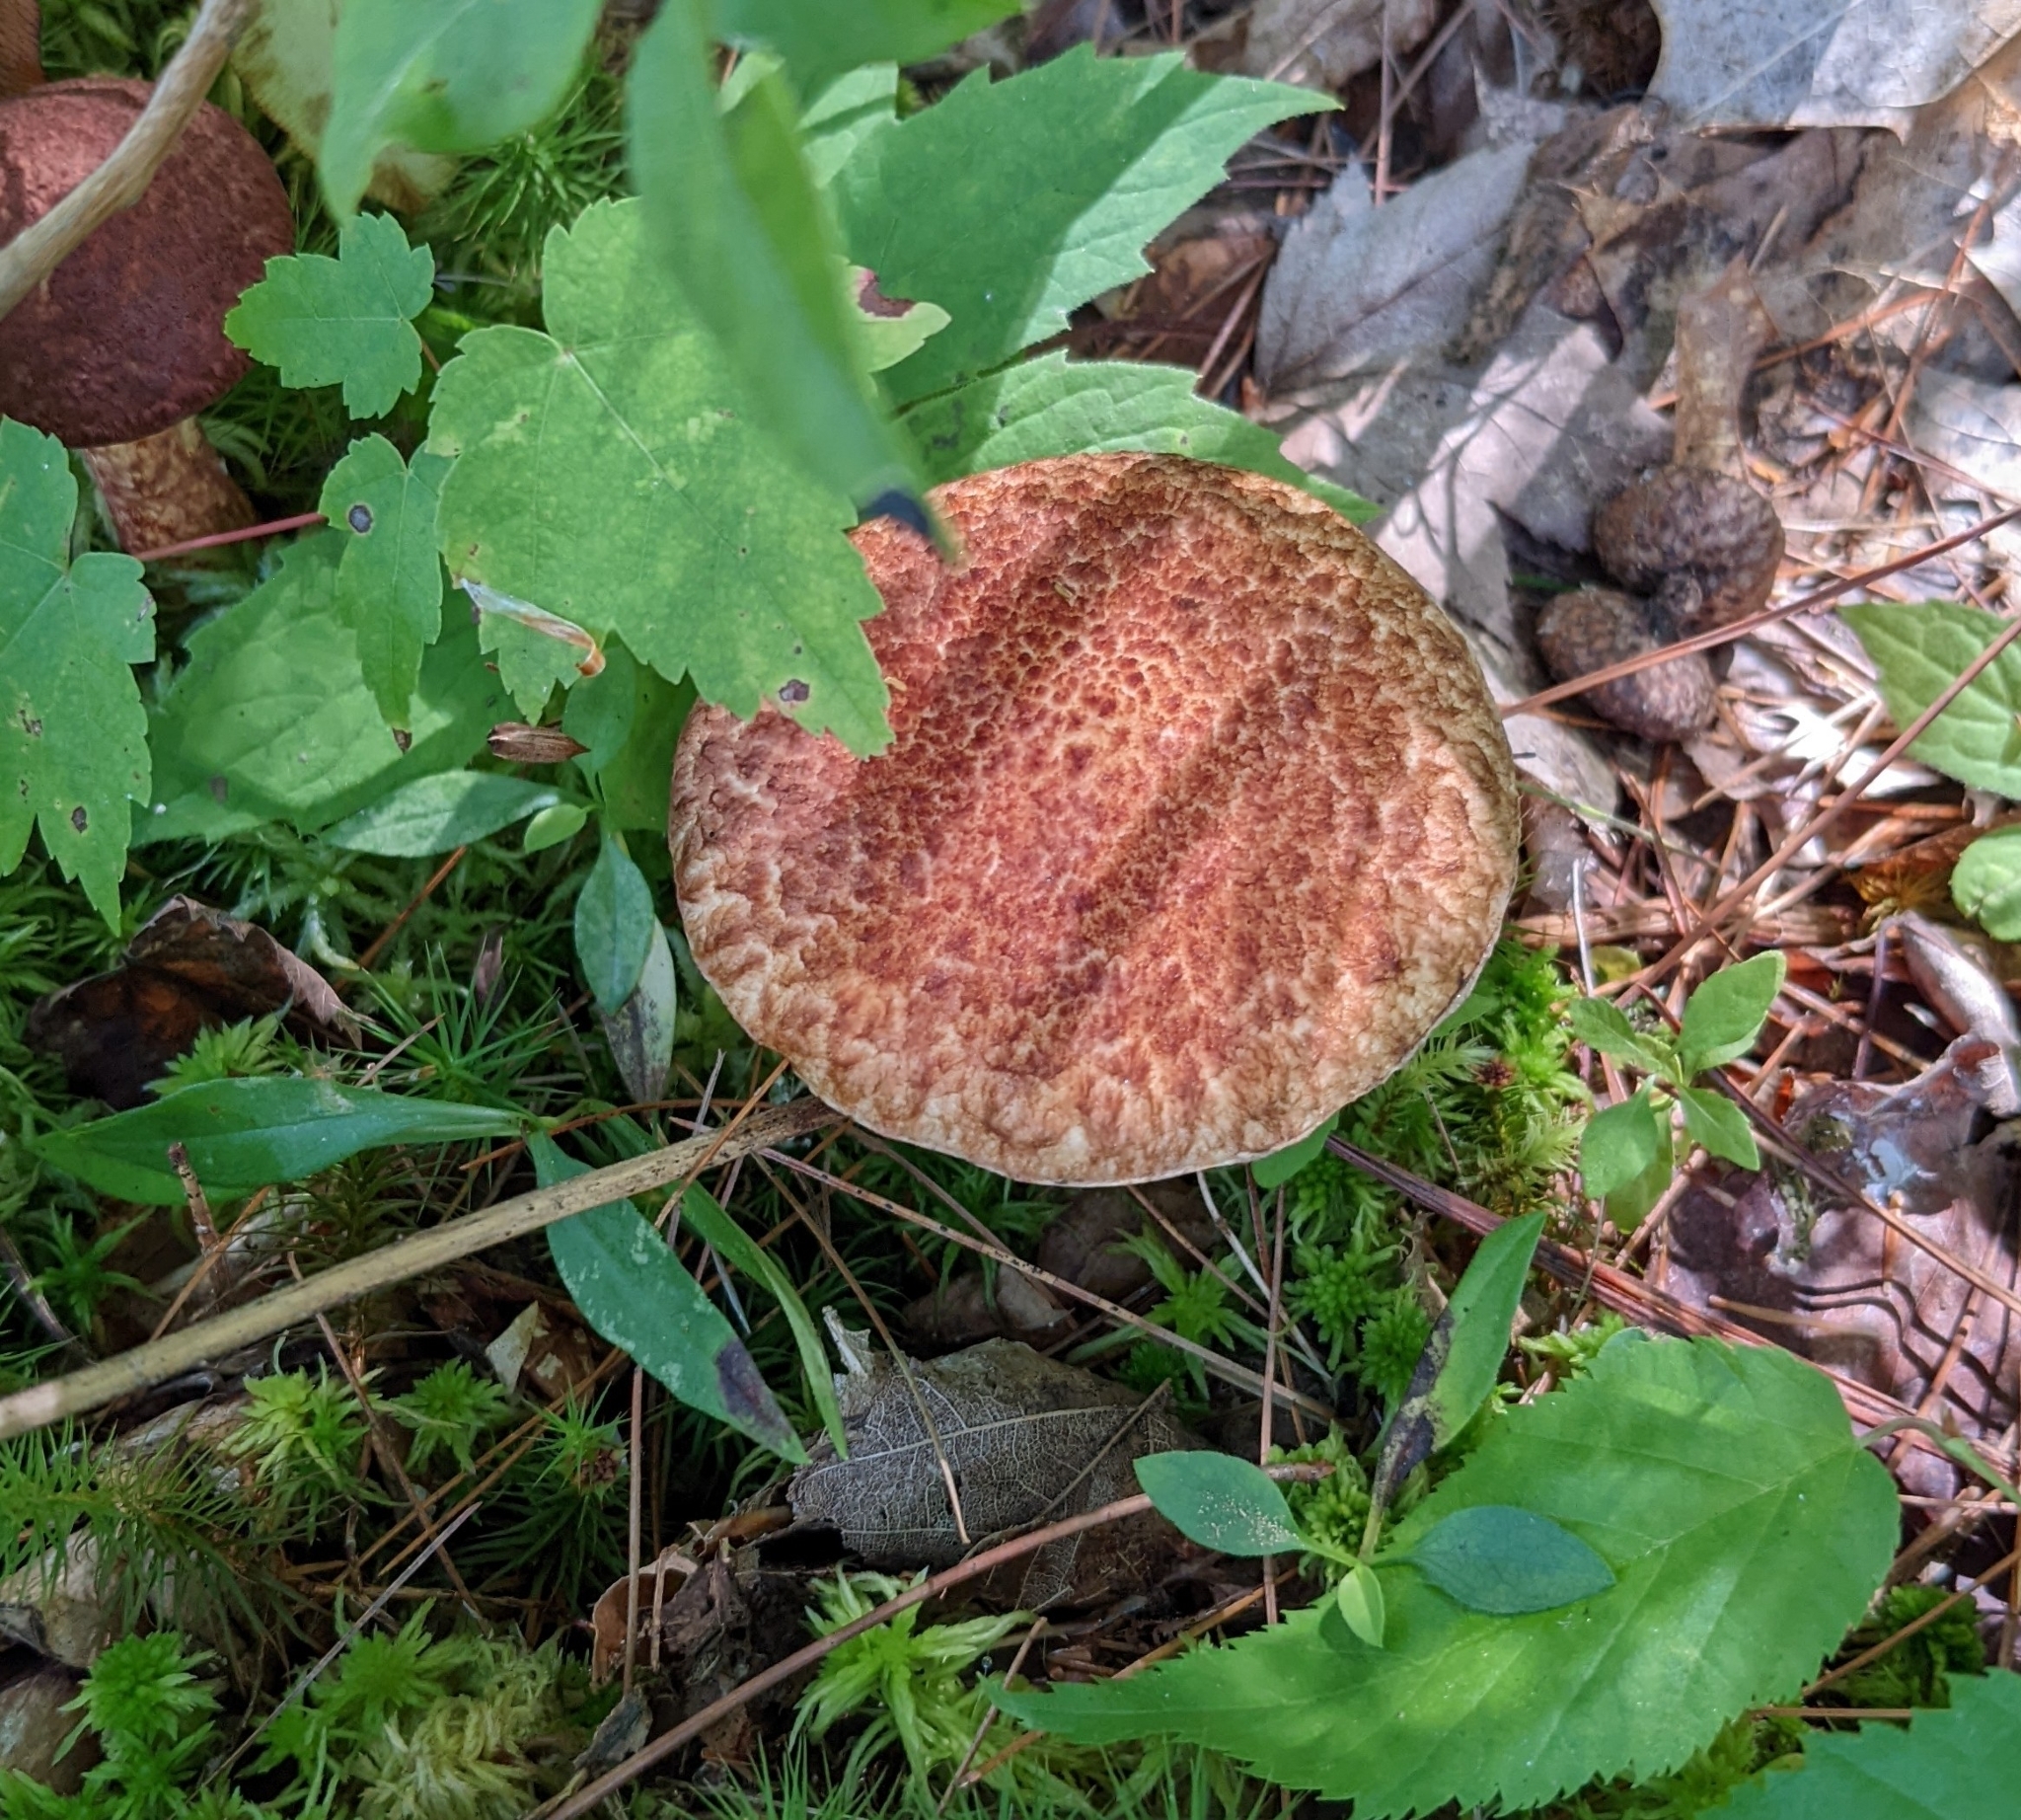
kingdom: Fungi
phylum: Basidiomycota
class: Agaricomycetes
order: Boletales
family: Suillaceae
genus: Suillus
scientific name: Suillus spraguei
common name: Painted suillus
